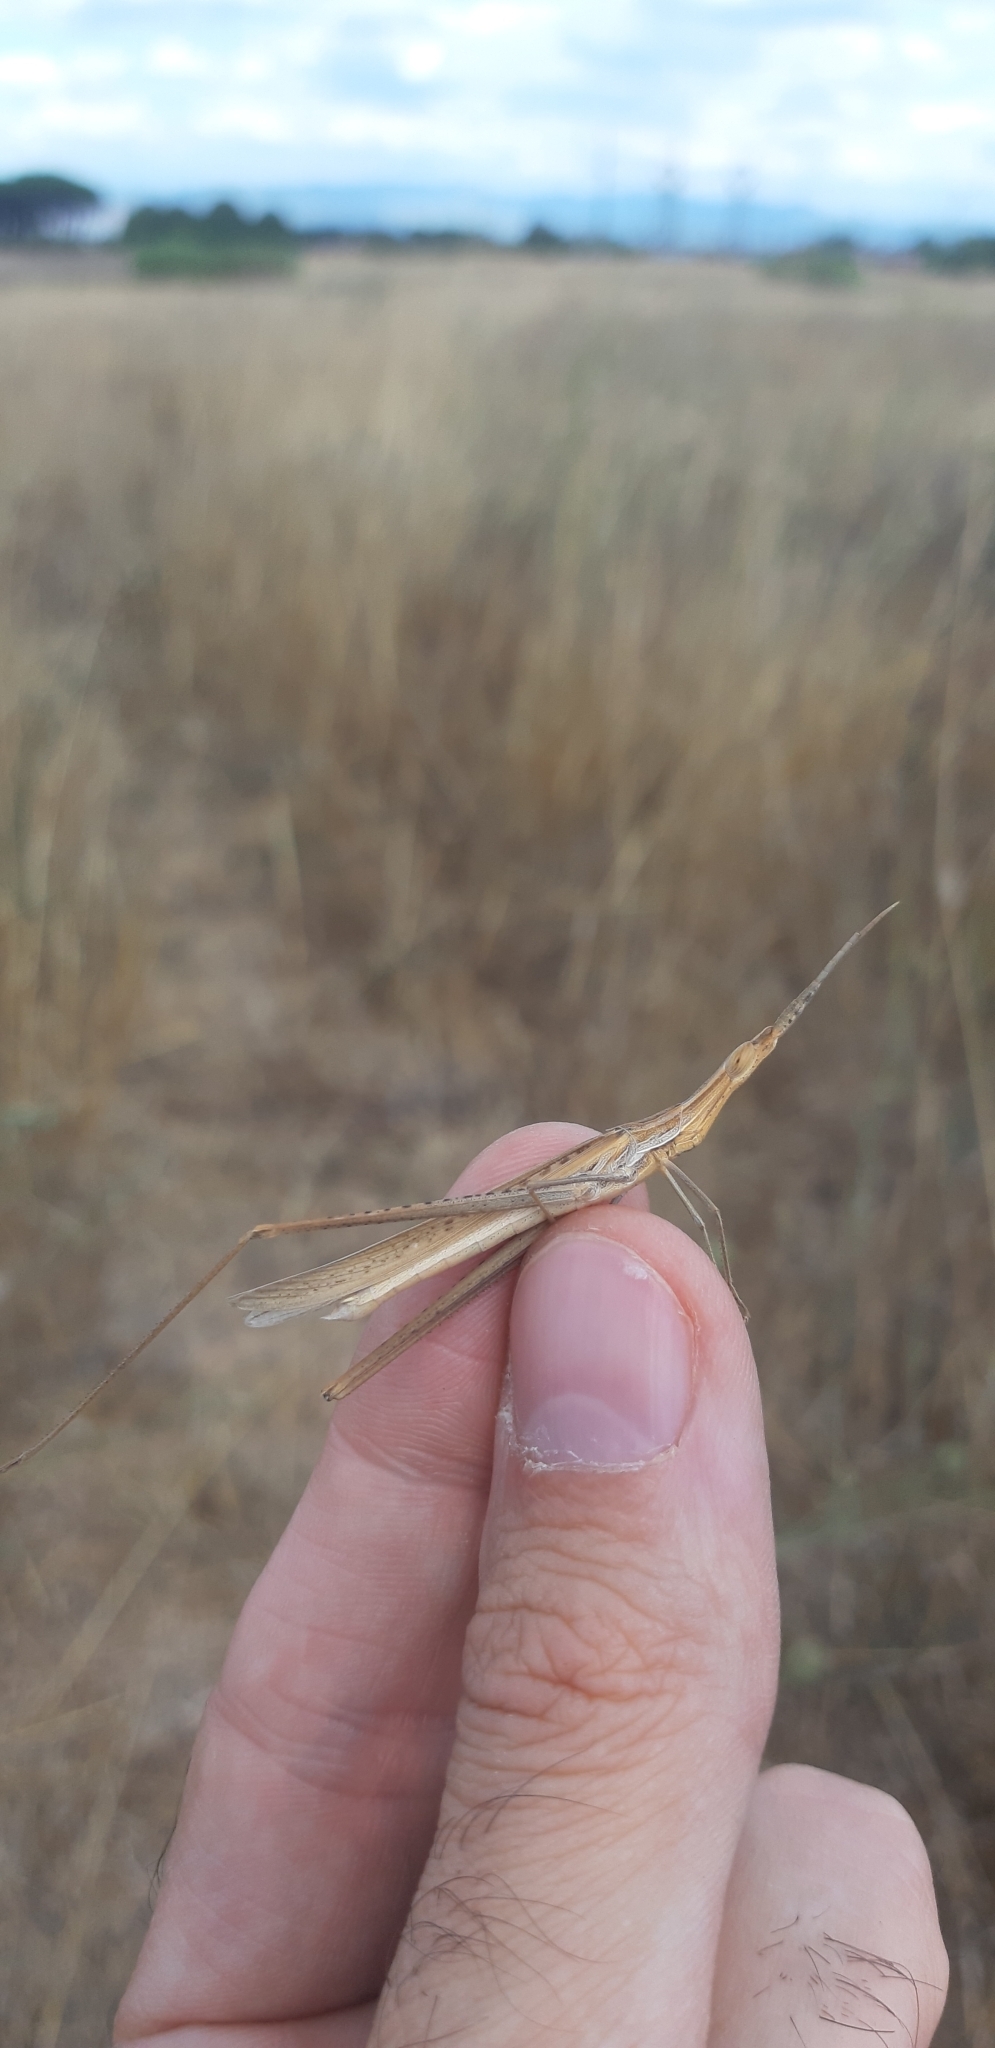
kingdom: Animalia
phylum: Arthropoda
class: Insecta
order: Orthoptera
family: Acrididae
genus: Acrida
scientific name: Acrida ungarica
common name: Common cone-headed grasshopper
